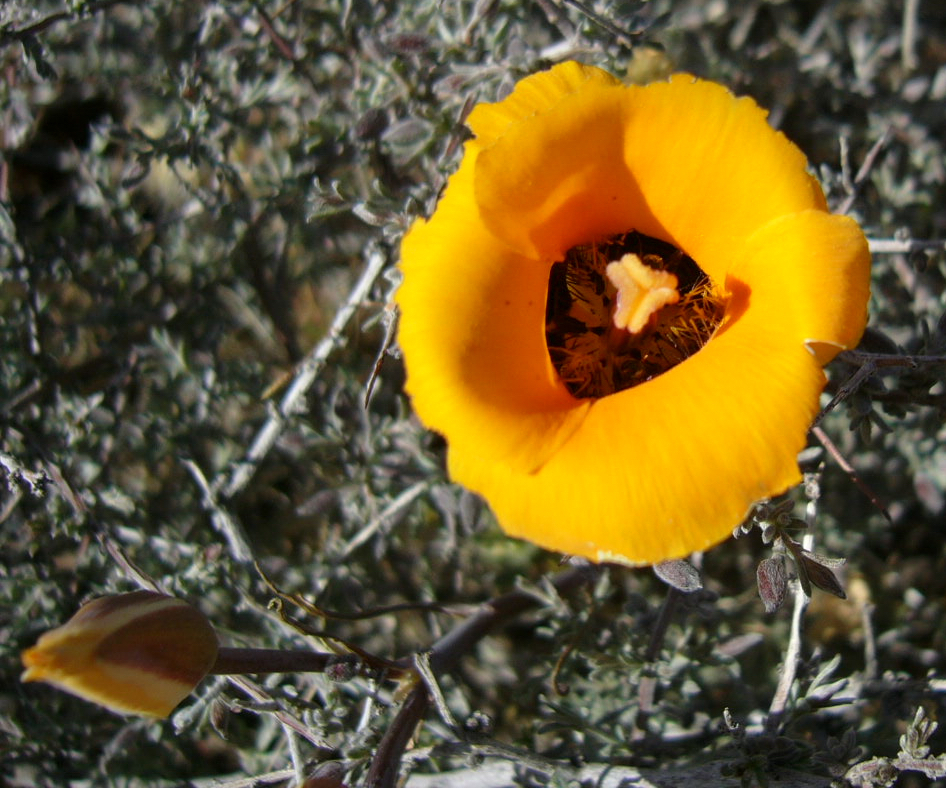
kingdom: Plantae
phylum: Tracheophyta
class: Liliopsida
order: Liliales
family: Liliaceae
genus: Calochortus
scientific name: Calochortus kennedyi
